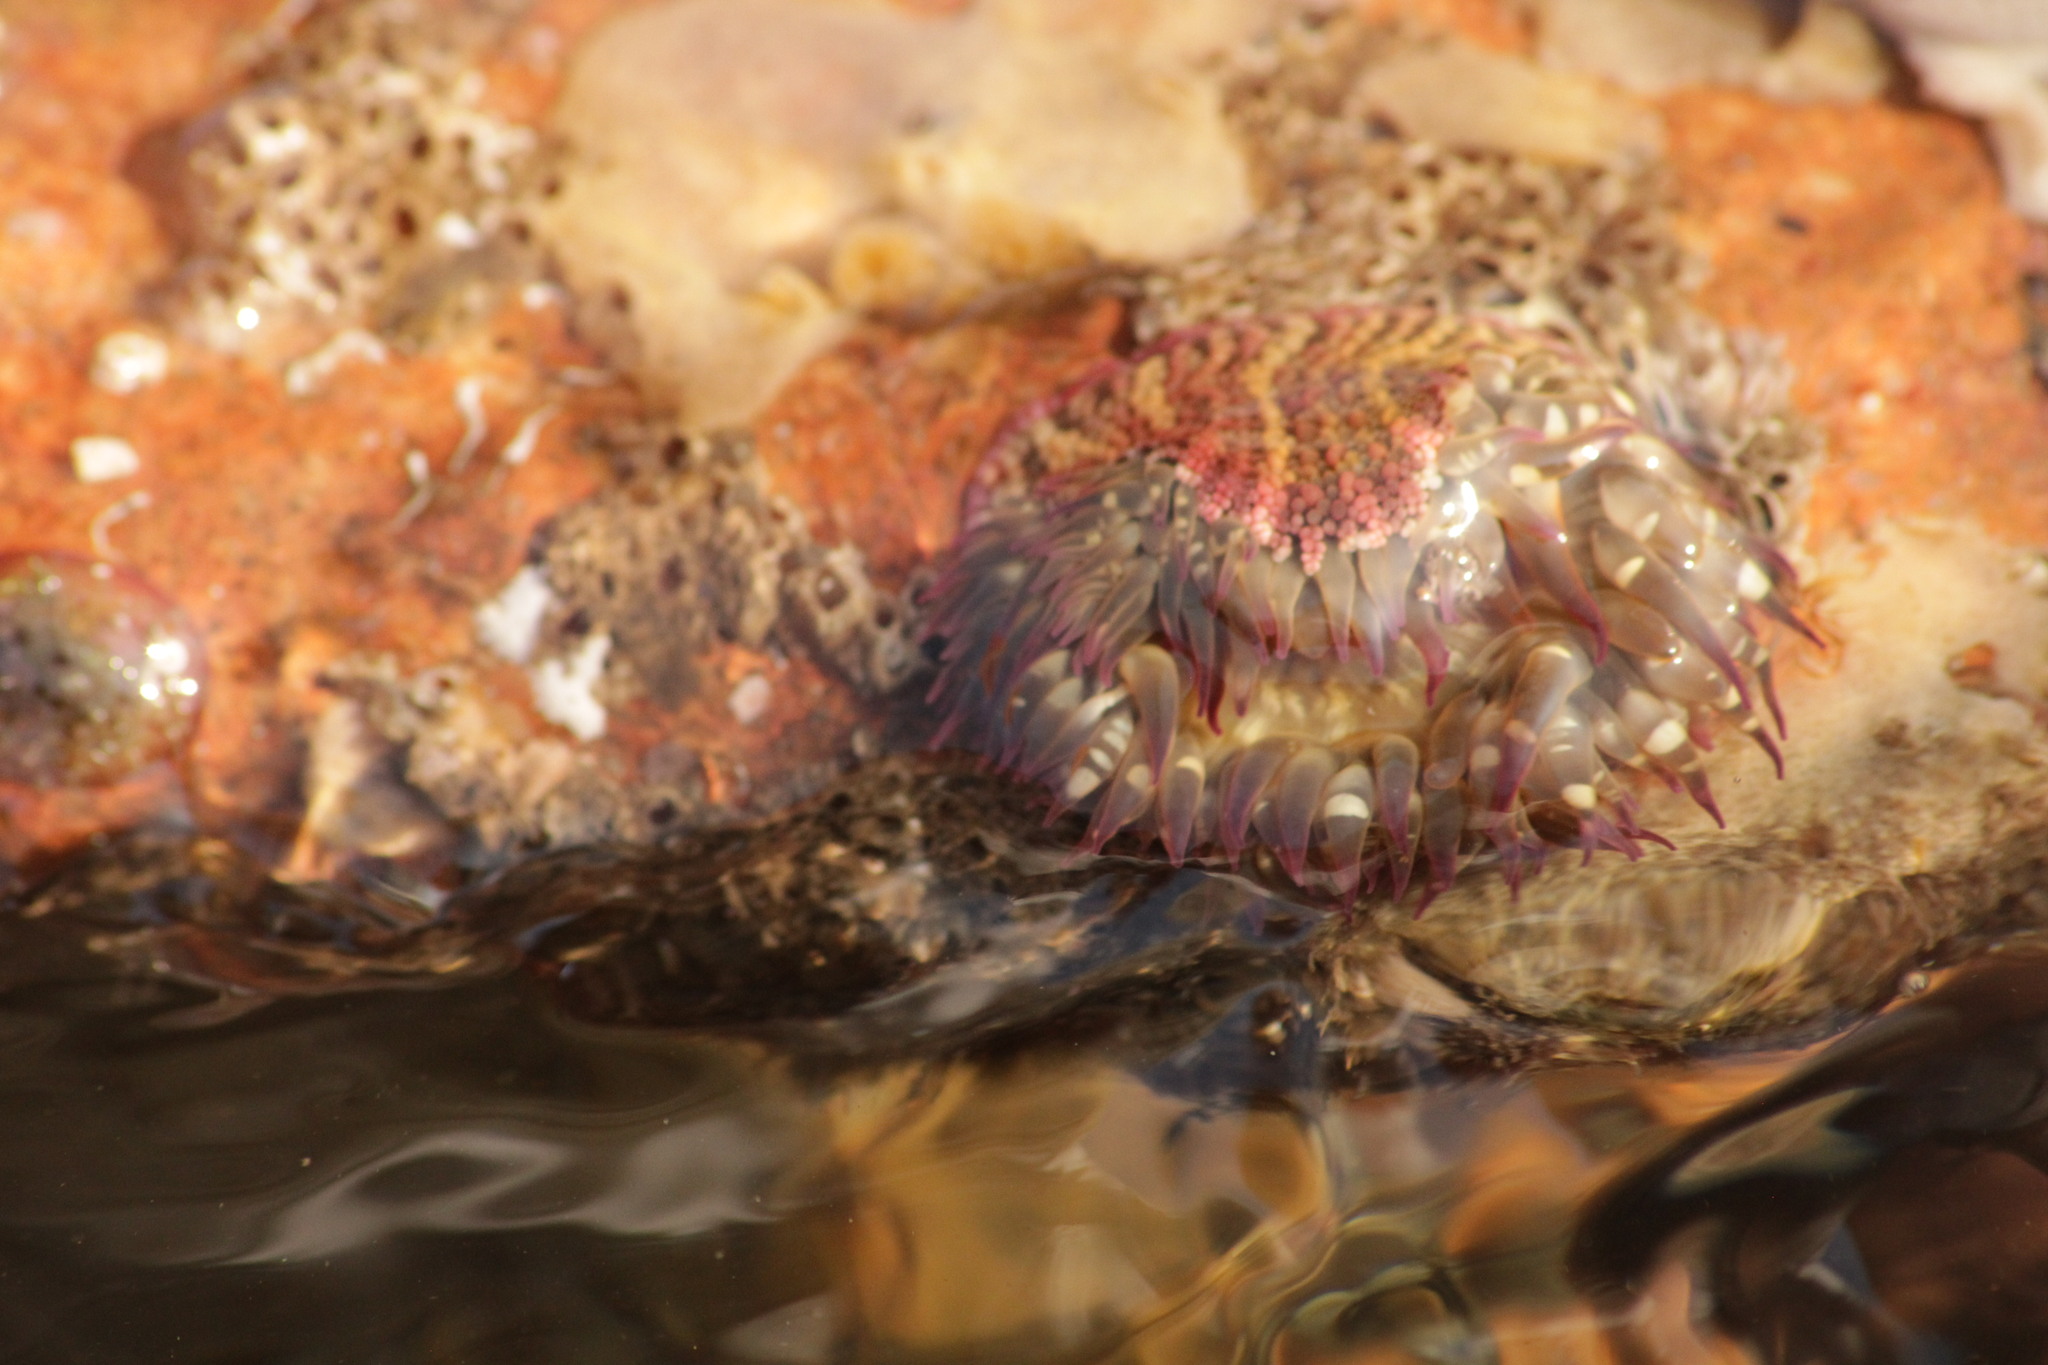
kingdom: Animalia
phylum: Cnidaria
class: Anthozoa
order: Actiniaria
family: Actiniidae
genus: Bunodosoma
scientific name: Bunodosoma californicum
